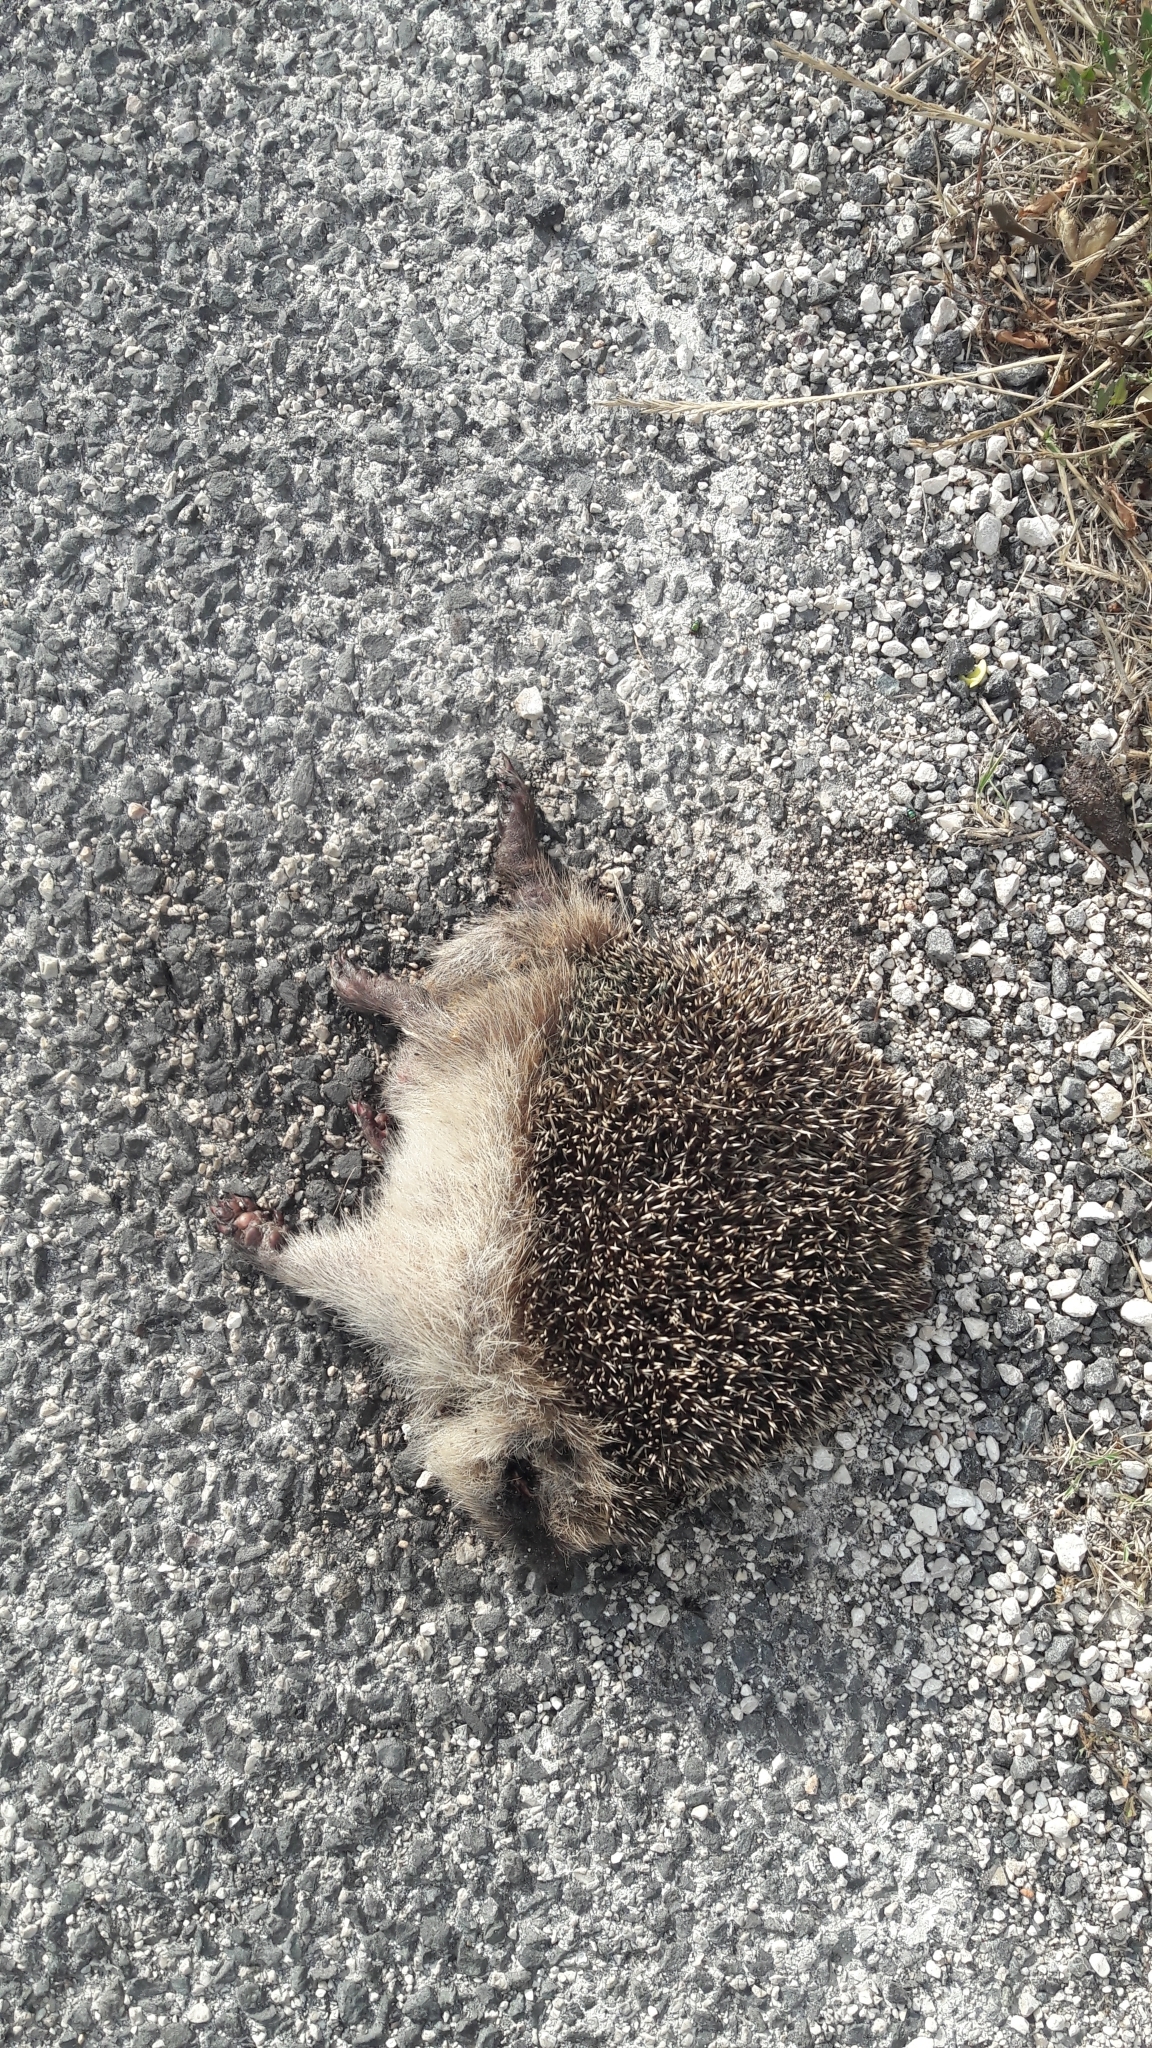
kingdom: Animalia
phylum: Chordata
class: Mammalia
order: Erinaceomorpha
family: Erinaceidae
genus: Erinaceus
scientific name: Erinaceus europaeus
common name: West european hedgehog
